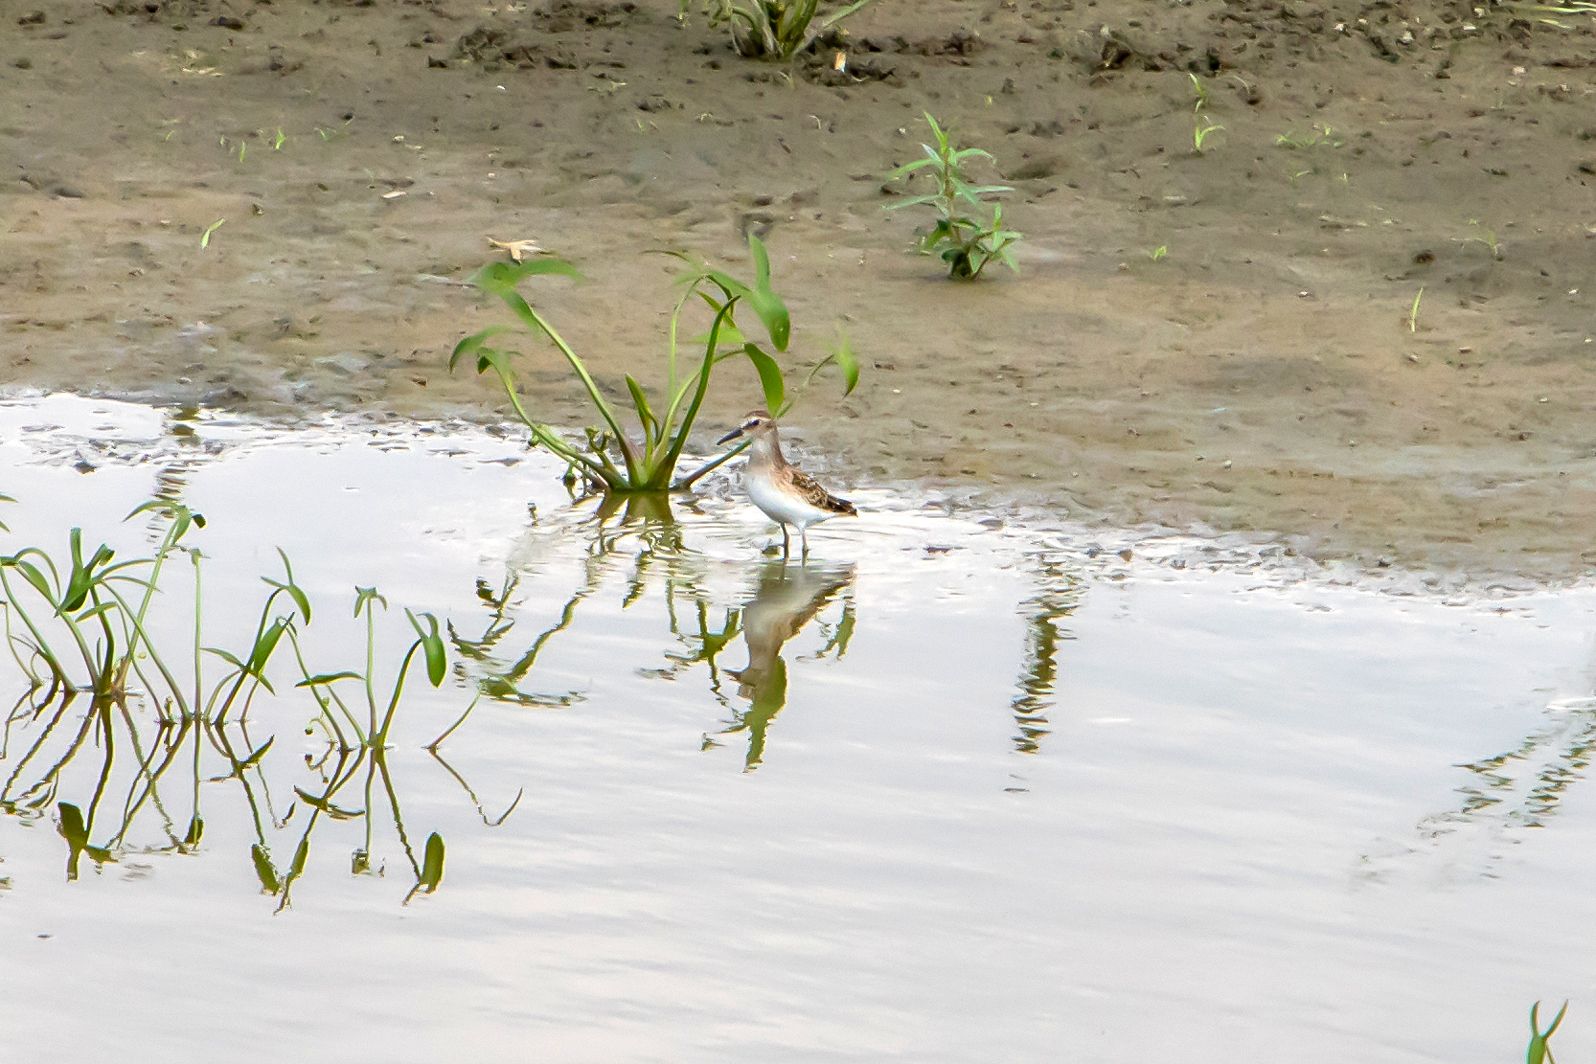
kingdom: Animalia
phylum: Chordata
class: Aves
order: Charadriiformes
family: Scolopacidae
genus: Calidris
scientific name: Calidris minutilla
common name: Least sandpiper
